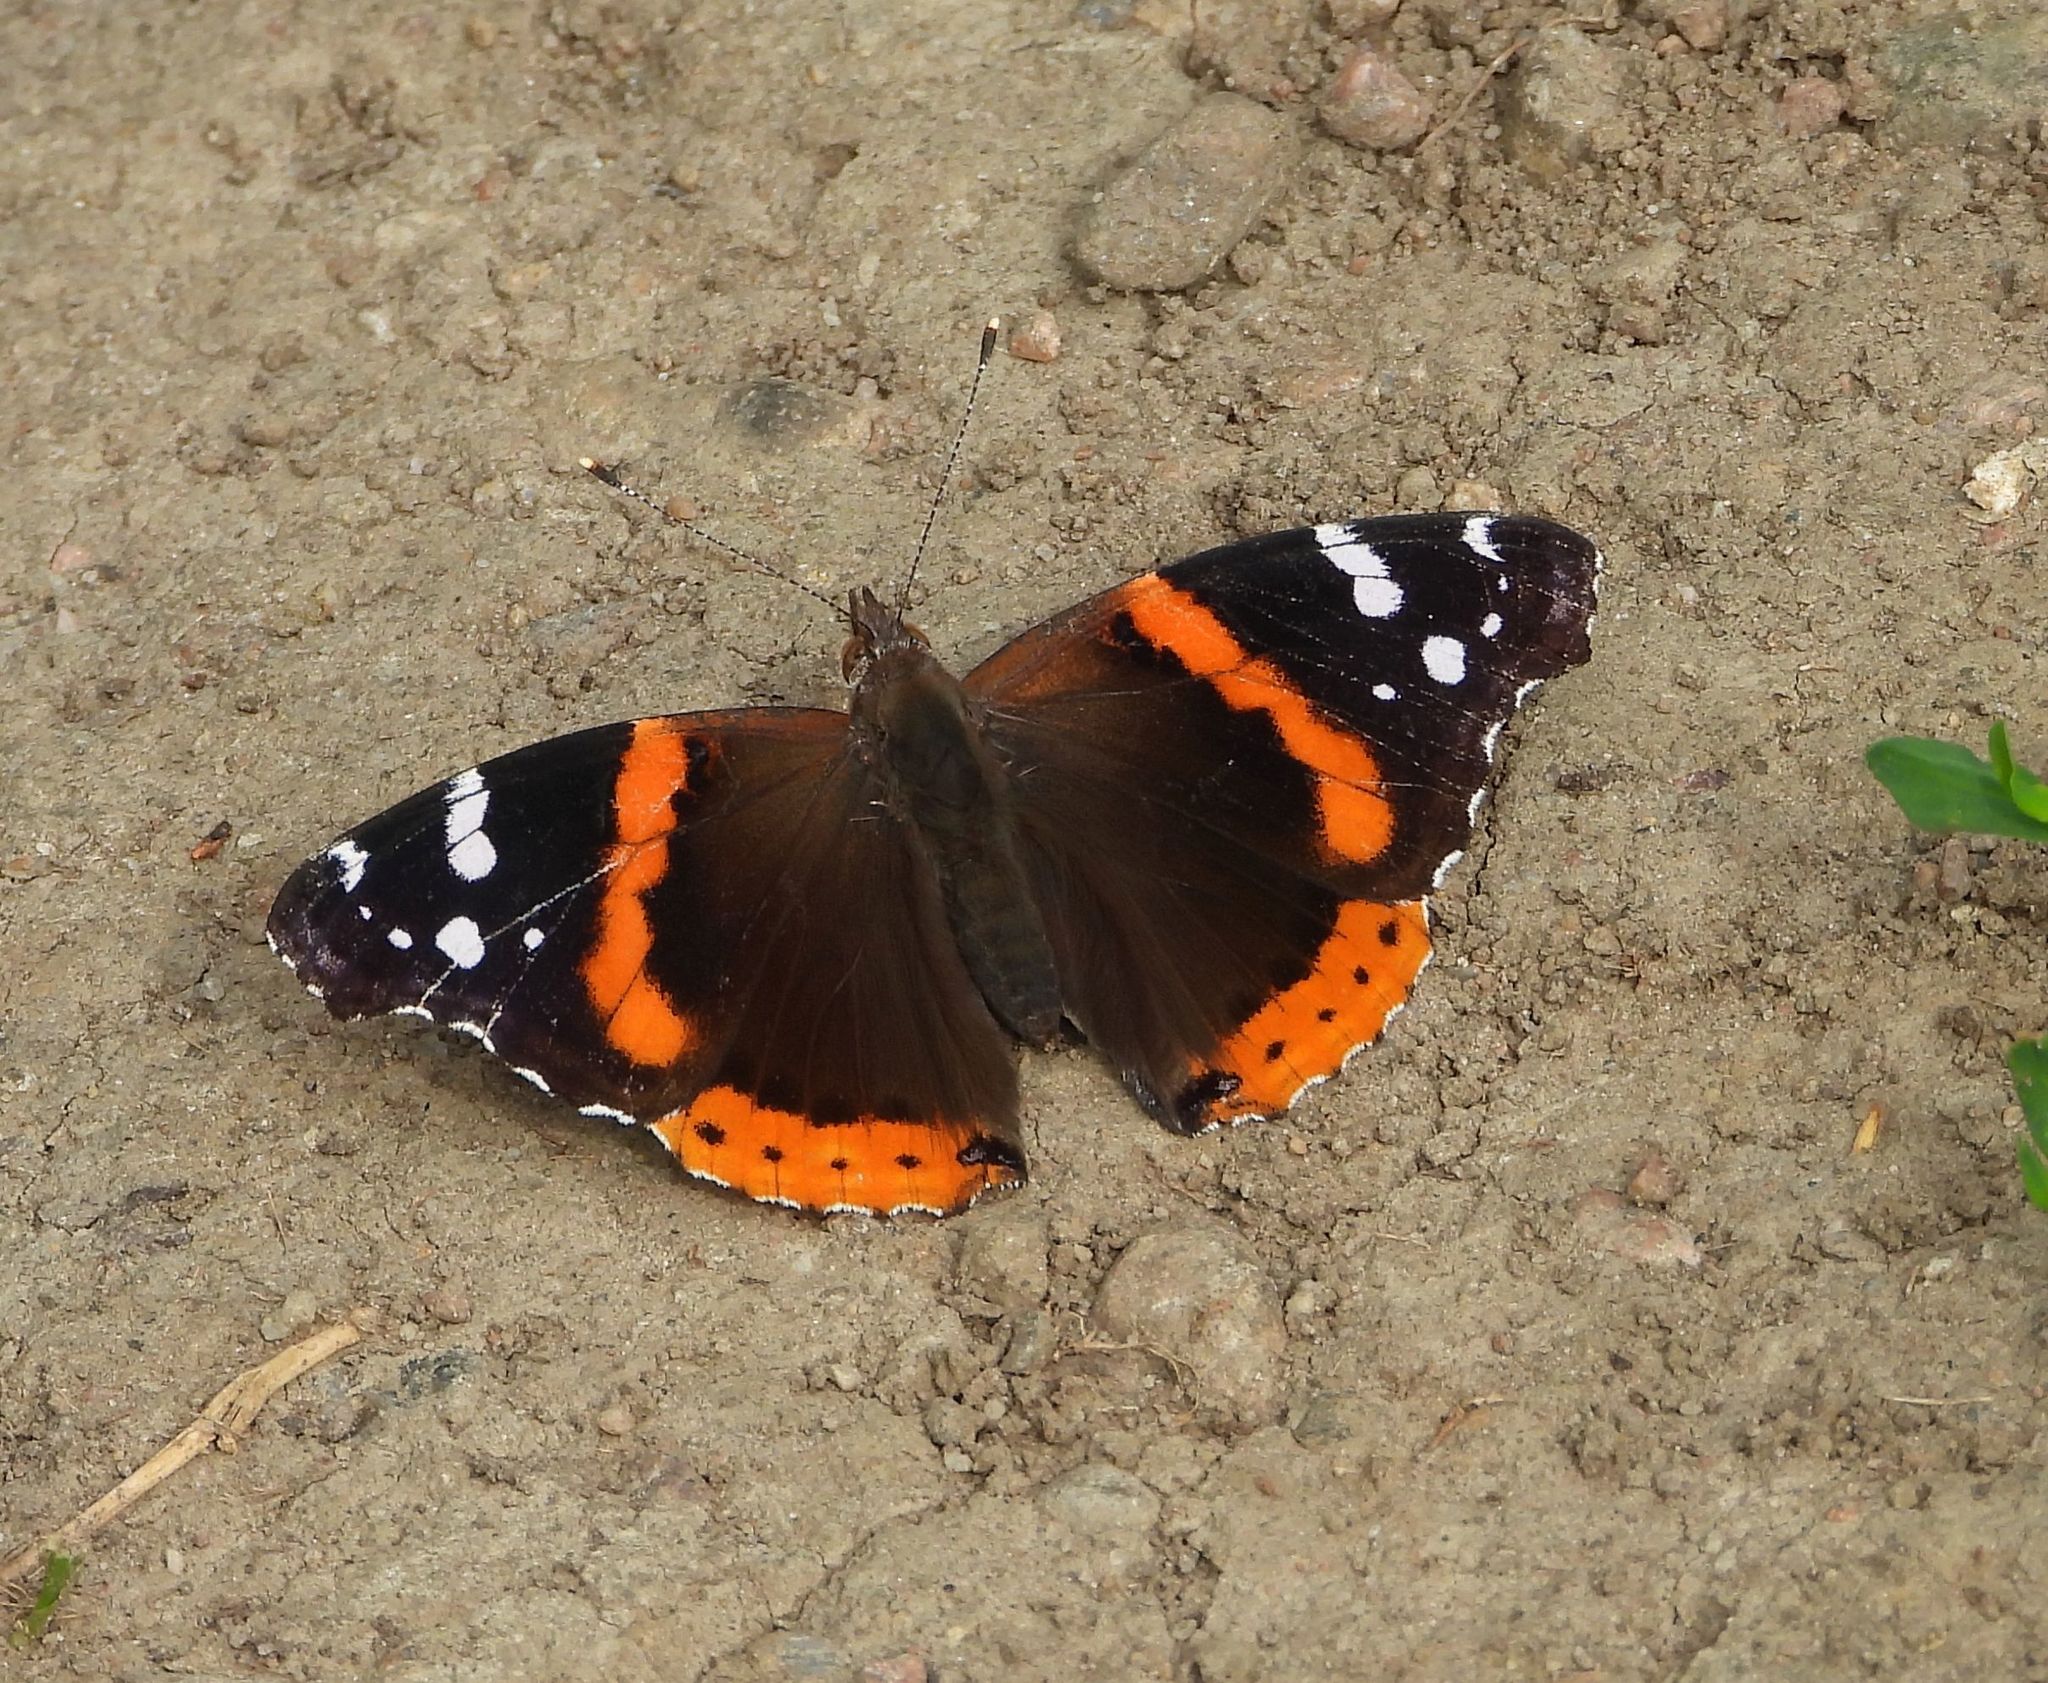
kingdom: Animalia
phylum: Arthropoda
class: Insecta
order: Lepidoptera
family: Nymphalidae
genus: Vanessa
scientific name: Vanessa atalanta
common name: Red admiral
